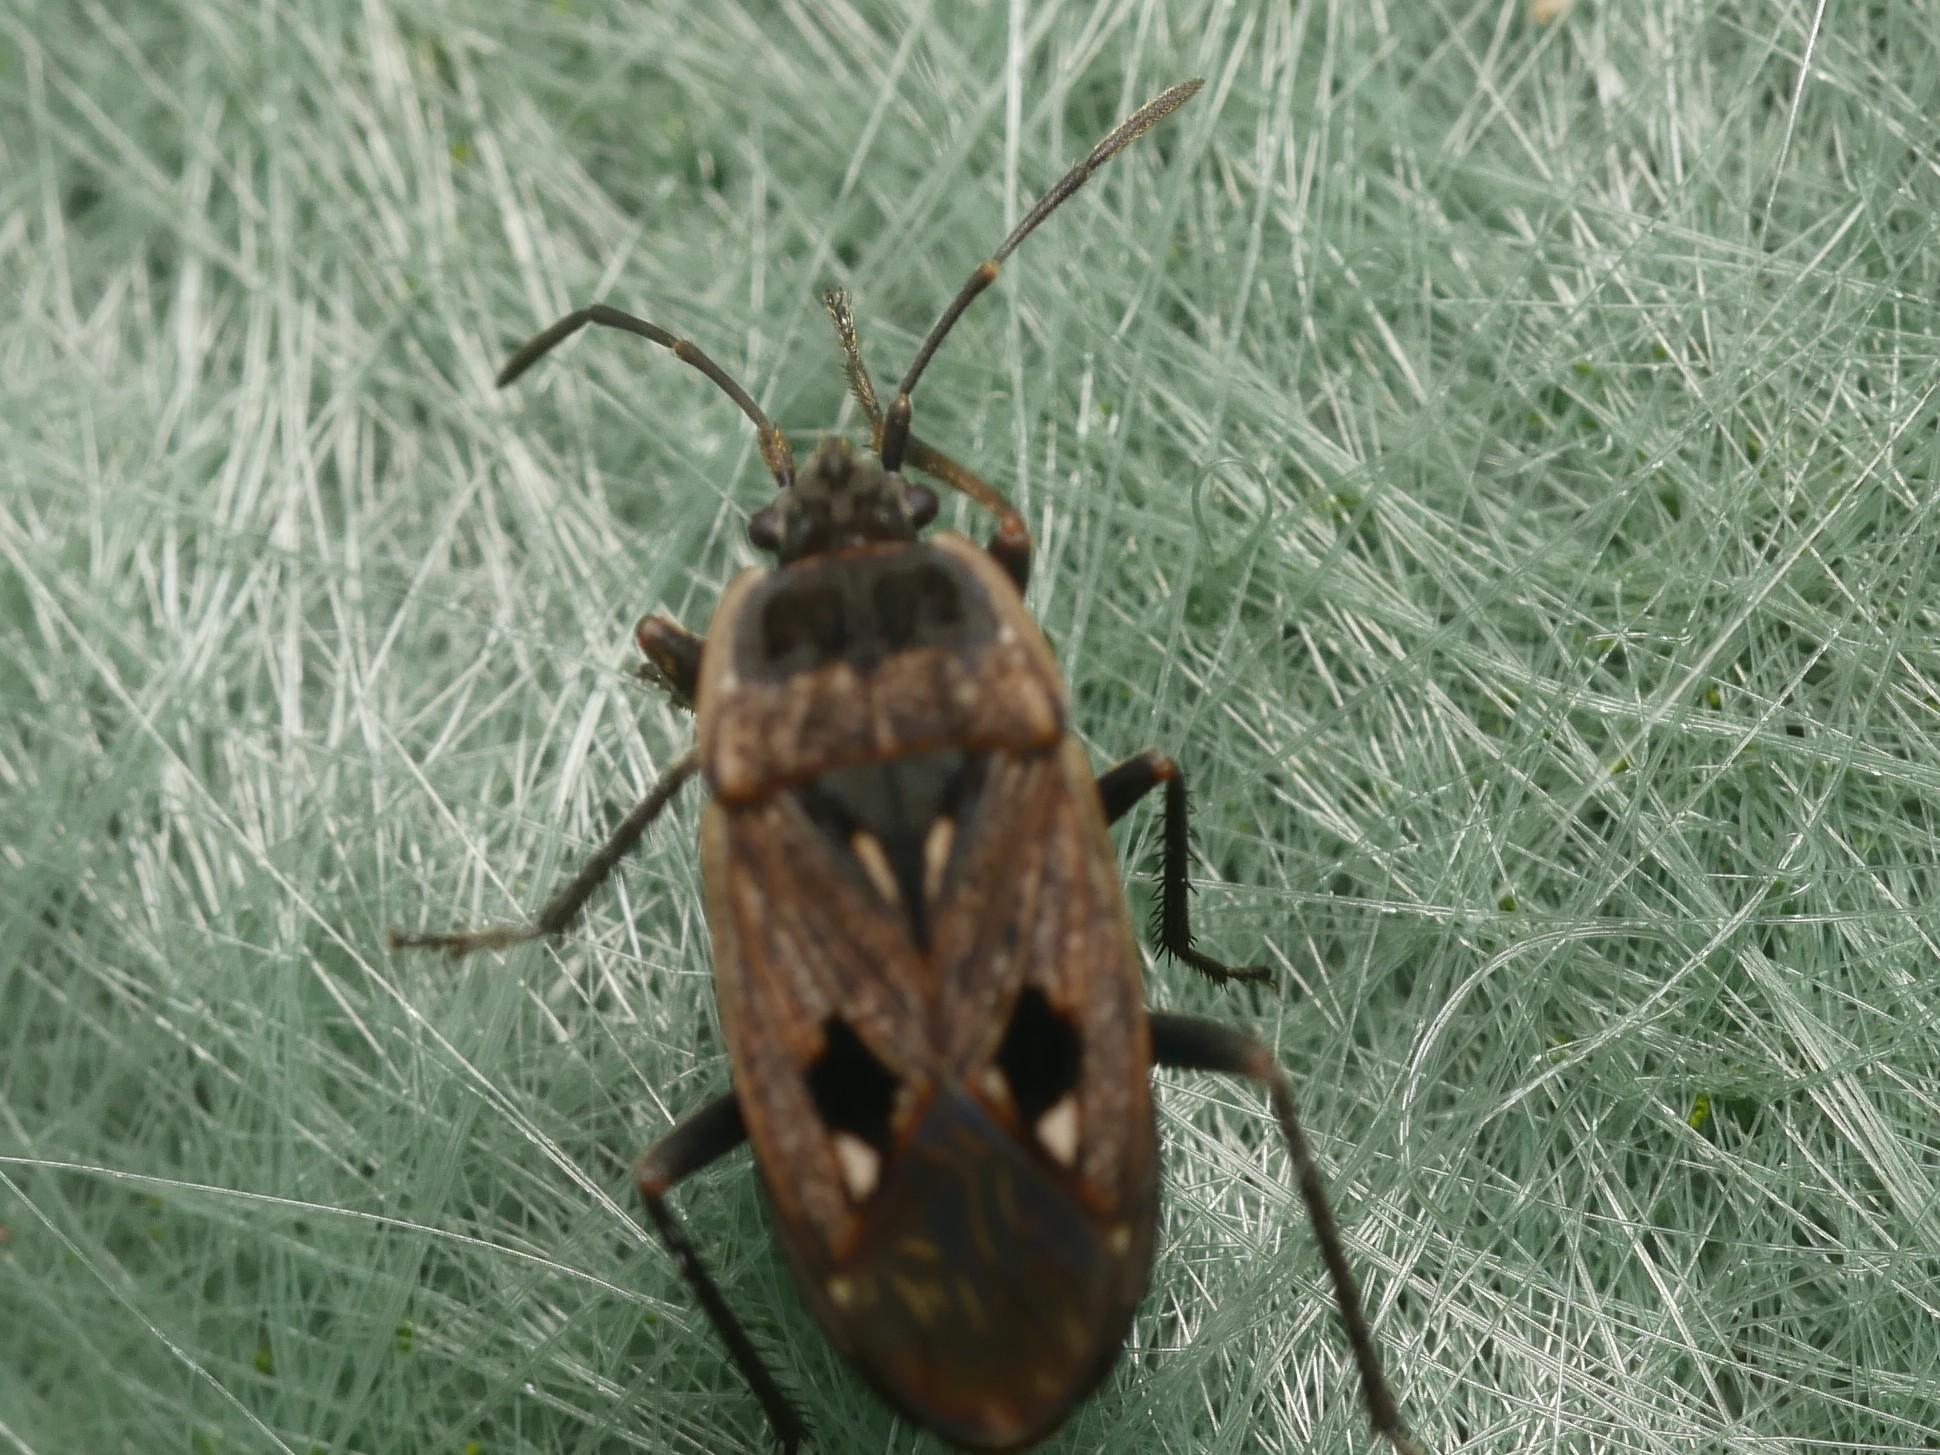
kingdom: Animalia
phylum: Arthropoda
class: Insecta
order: Hemiptera
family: Rhyparochromidae
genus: Graptopeltus
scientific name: Graptopeltus lynceus
